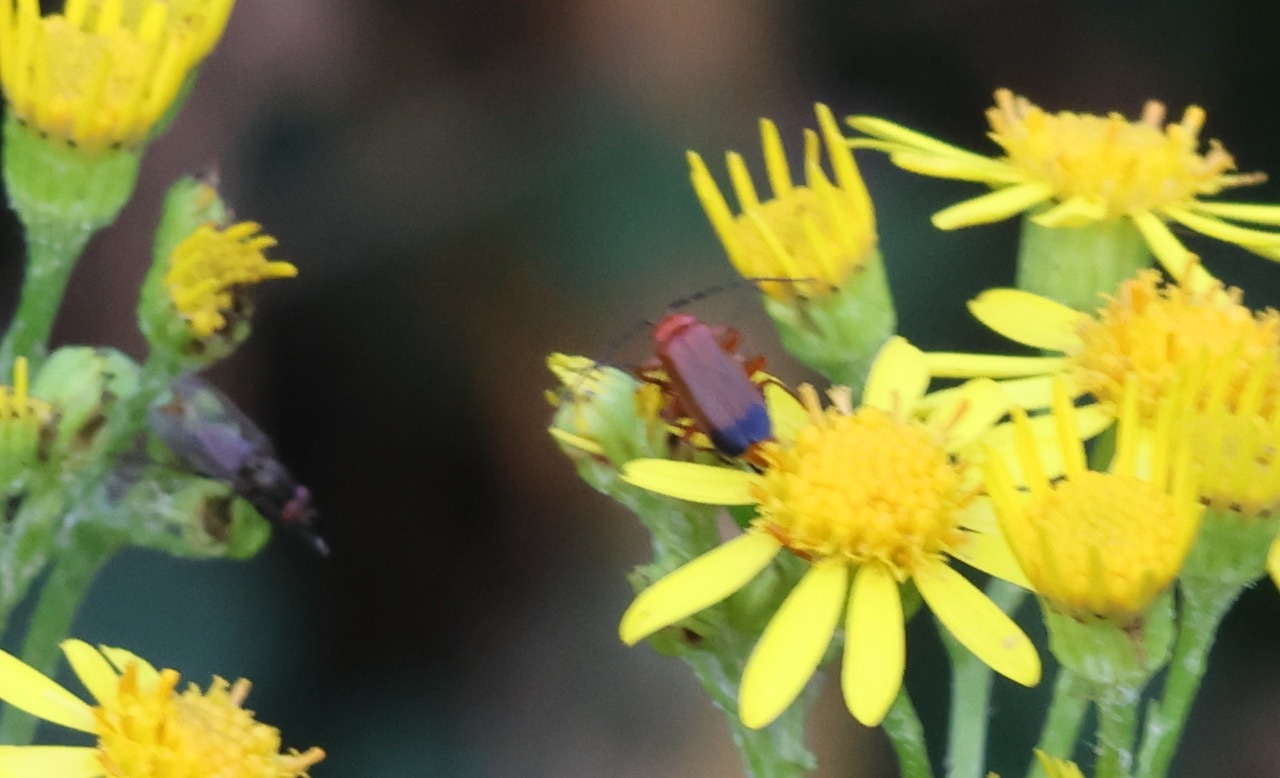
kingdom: Animalia
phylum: Arthropoda
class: Insecta
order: Coleoptera
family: Cantharidae
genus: Rhagonycha
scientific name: Rhagonycha fulva
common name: Common red soldier beetle
